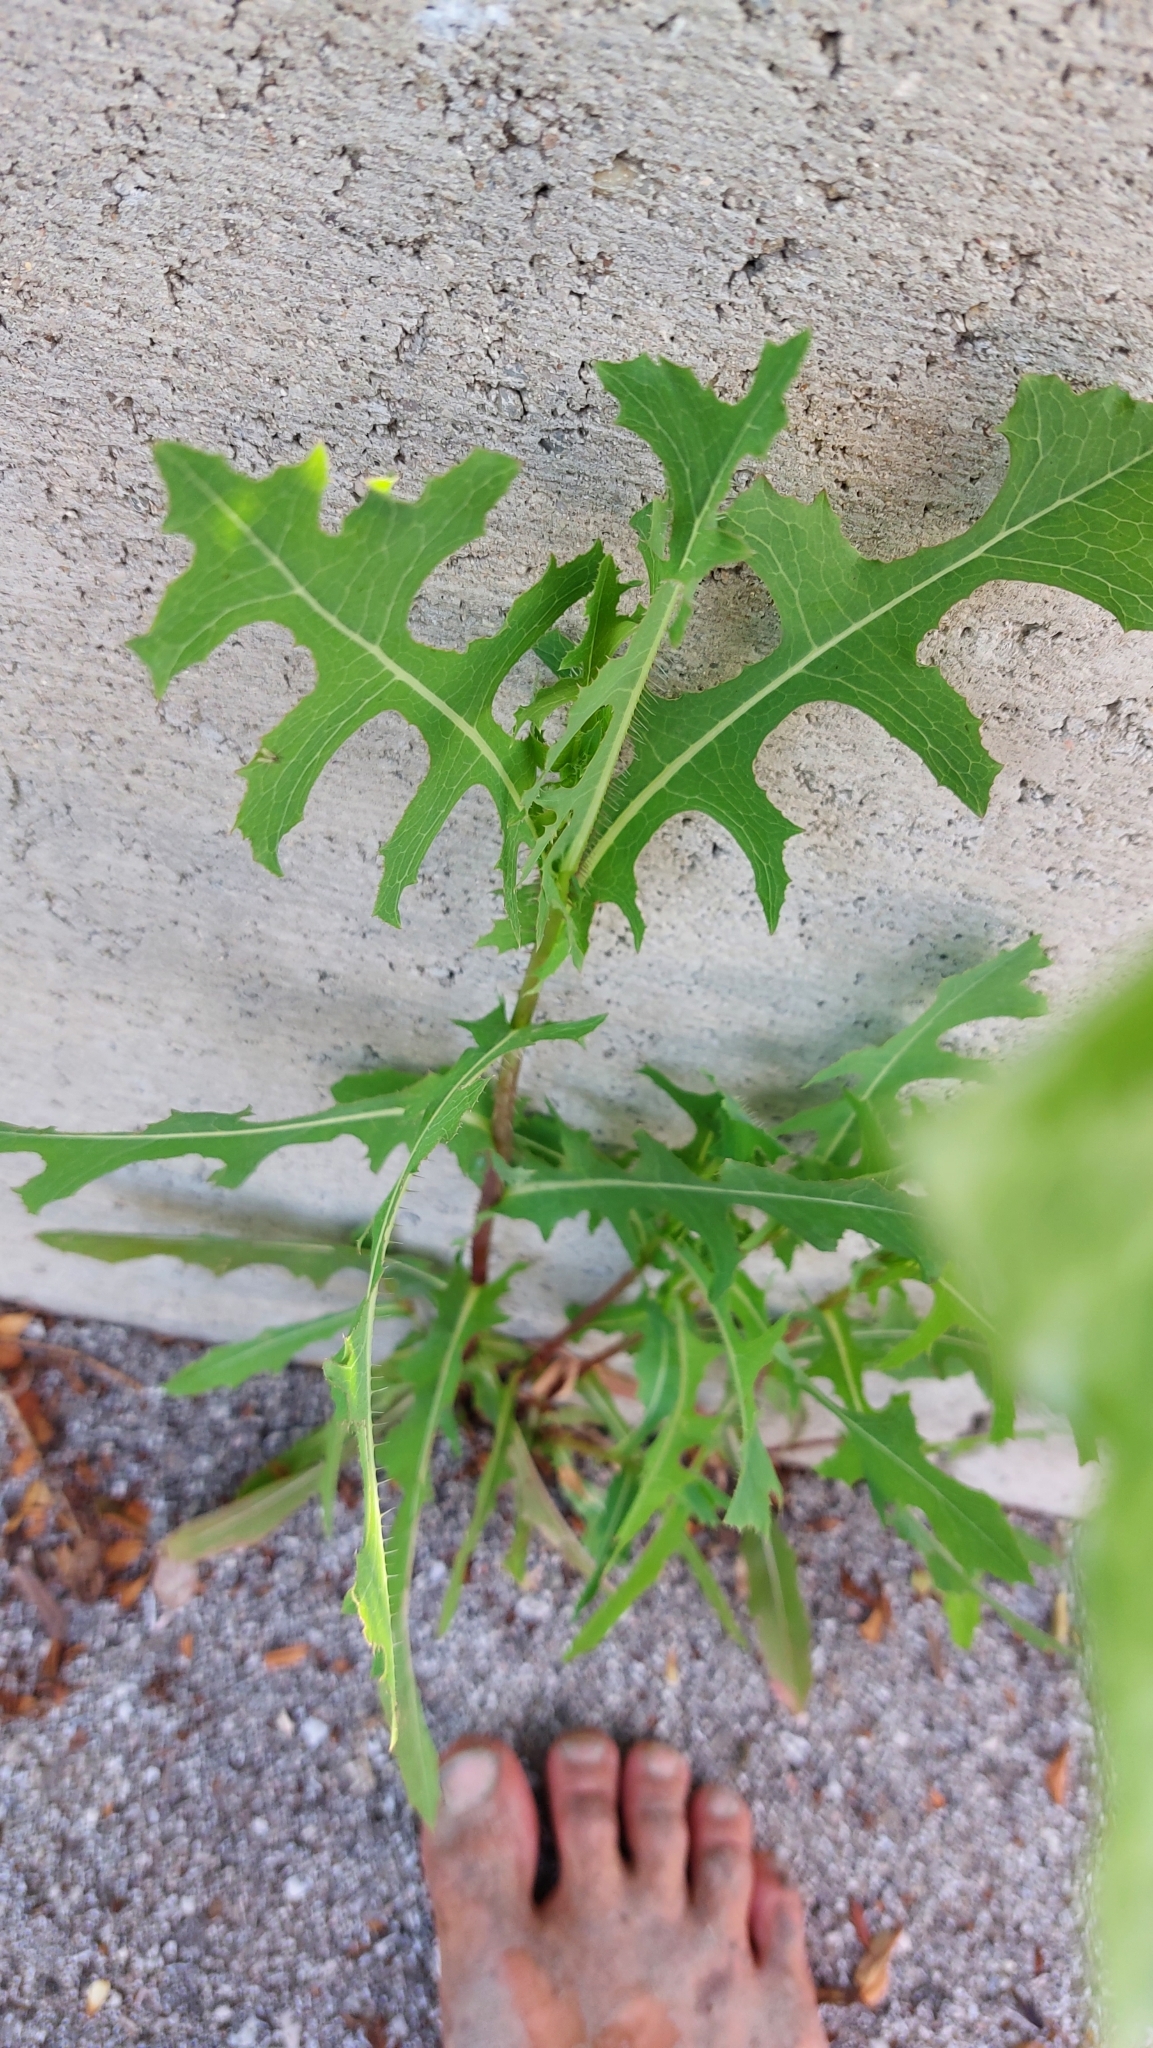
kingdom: Plantae
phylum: Tracheophyta
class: Magnoliopsida
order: Asterales
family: Asteraceae
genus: Lactuca
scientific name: Lactuca serriola
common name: Prickly lettuce
